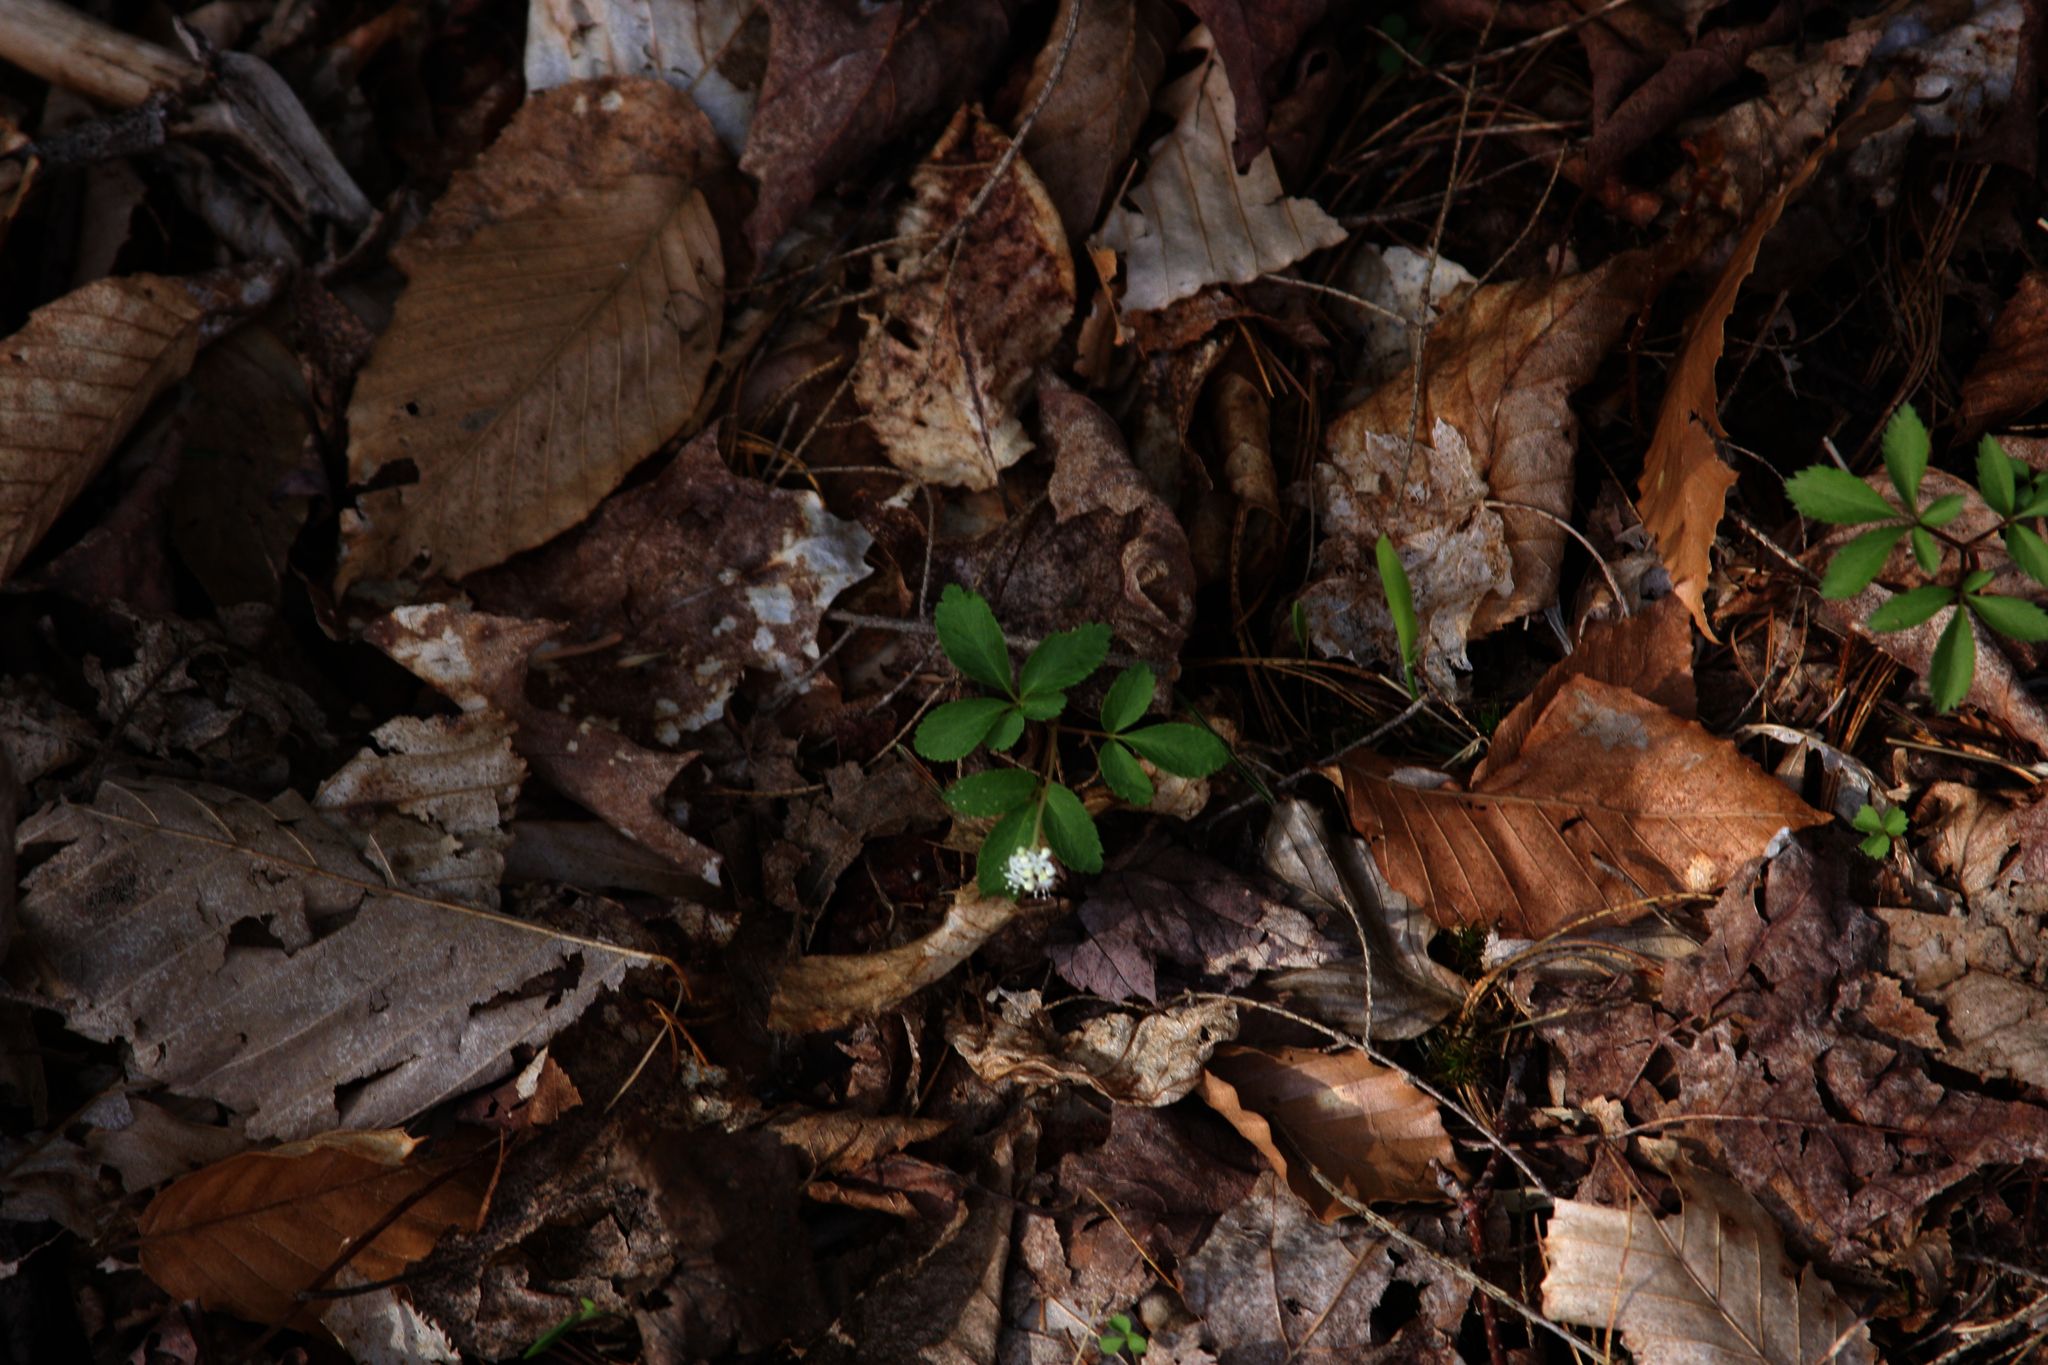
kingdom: Plantae
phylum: Tracheophyta
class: Magnoliopsida
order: Apiales
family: Araliaceae
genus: Panax
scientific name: Panax trifolius
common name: Dwarf ginseng
